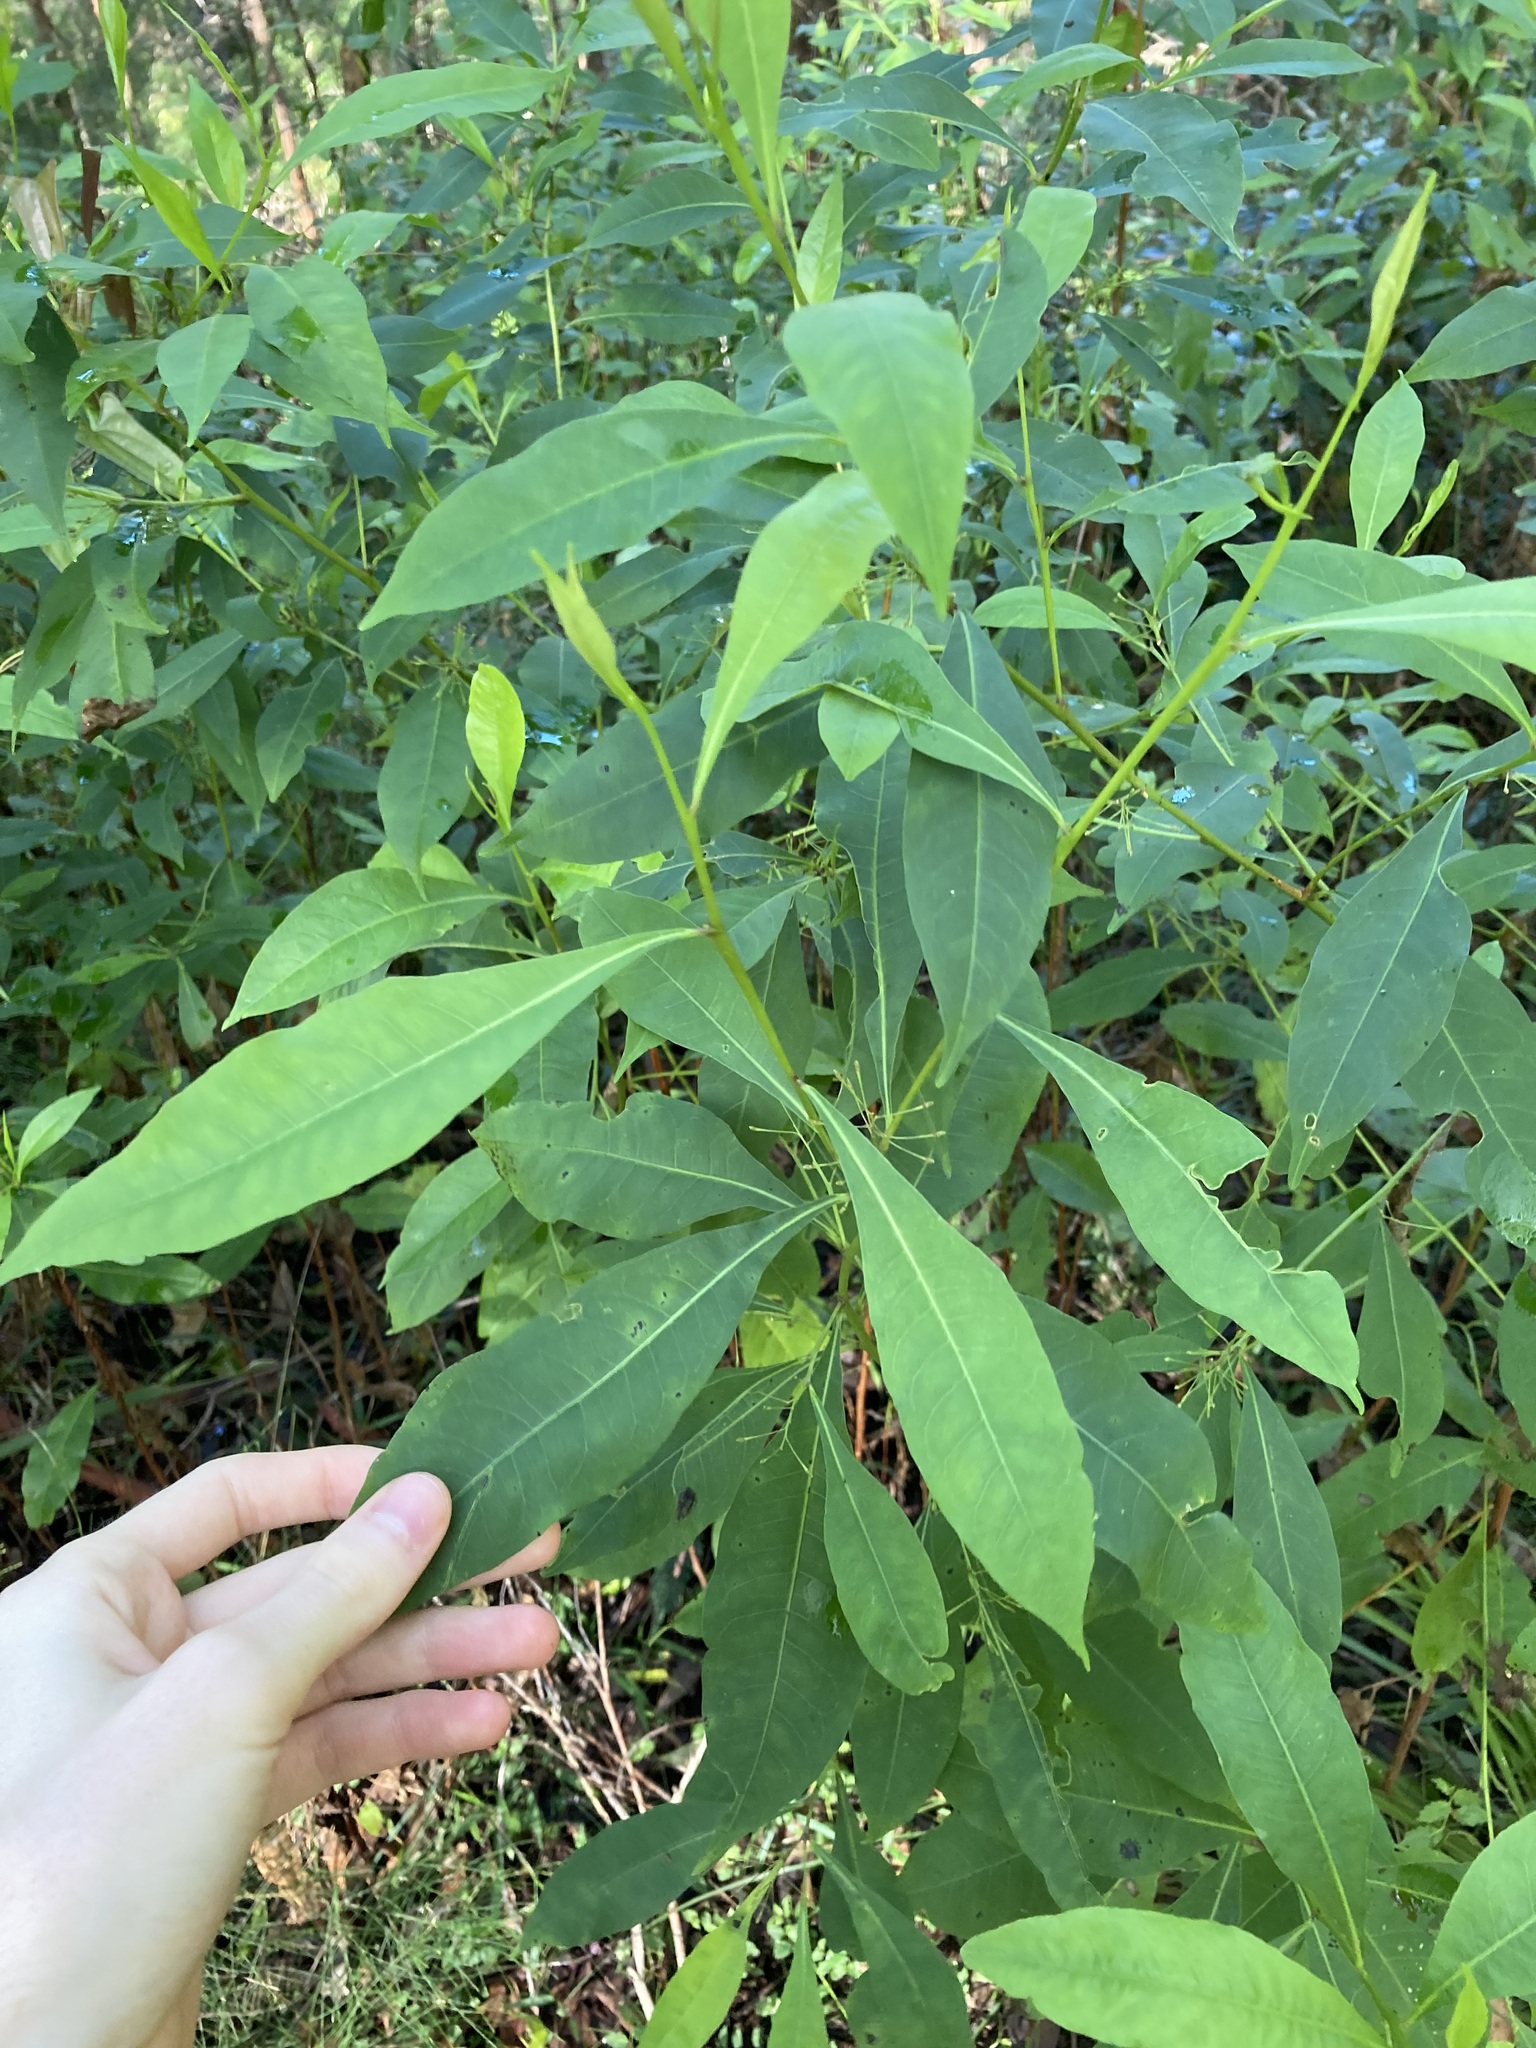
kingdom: Plantae
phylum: Tracheophyta
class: Magnoliopsida
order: Sapindales
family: Sapindaceae
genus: Dodonaea
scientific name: Dodonaea triquetra
